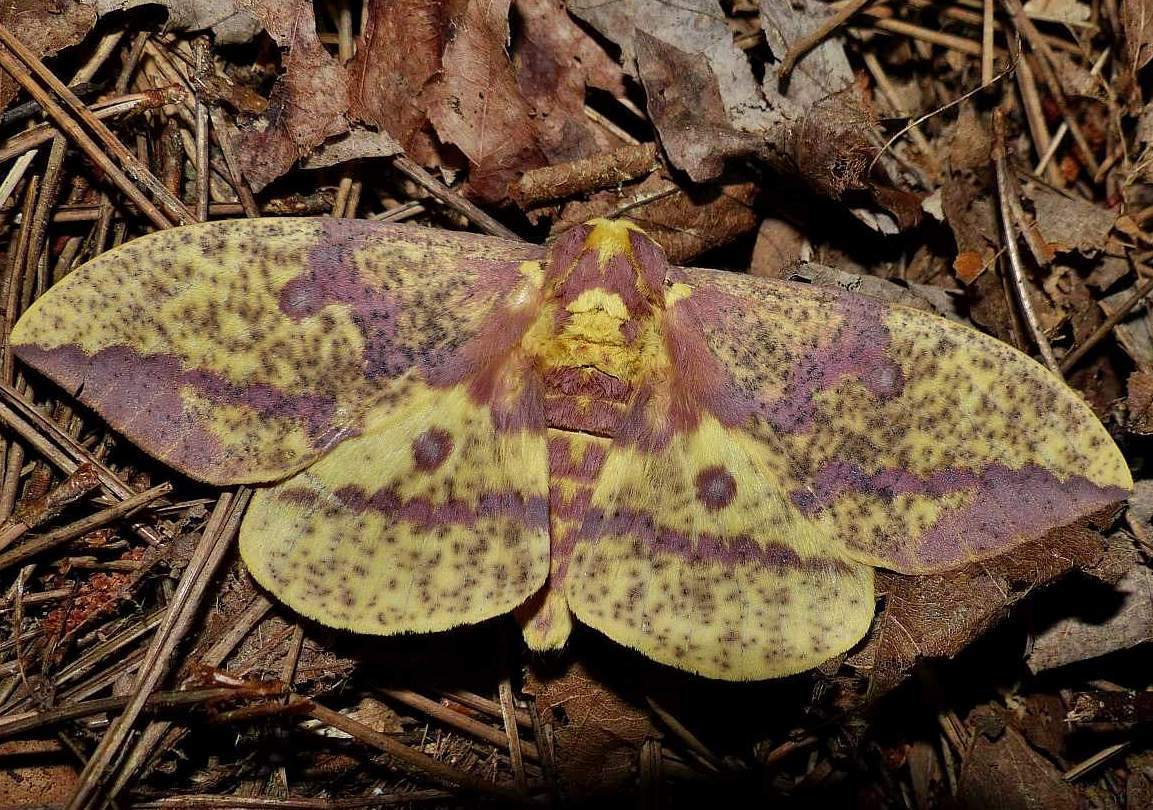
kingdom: Animalia
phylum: Arthropoda
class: Insecta
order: Lepidoptera
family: Saturniidae
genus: Eacles
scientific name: Eacles
